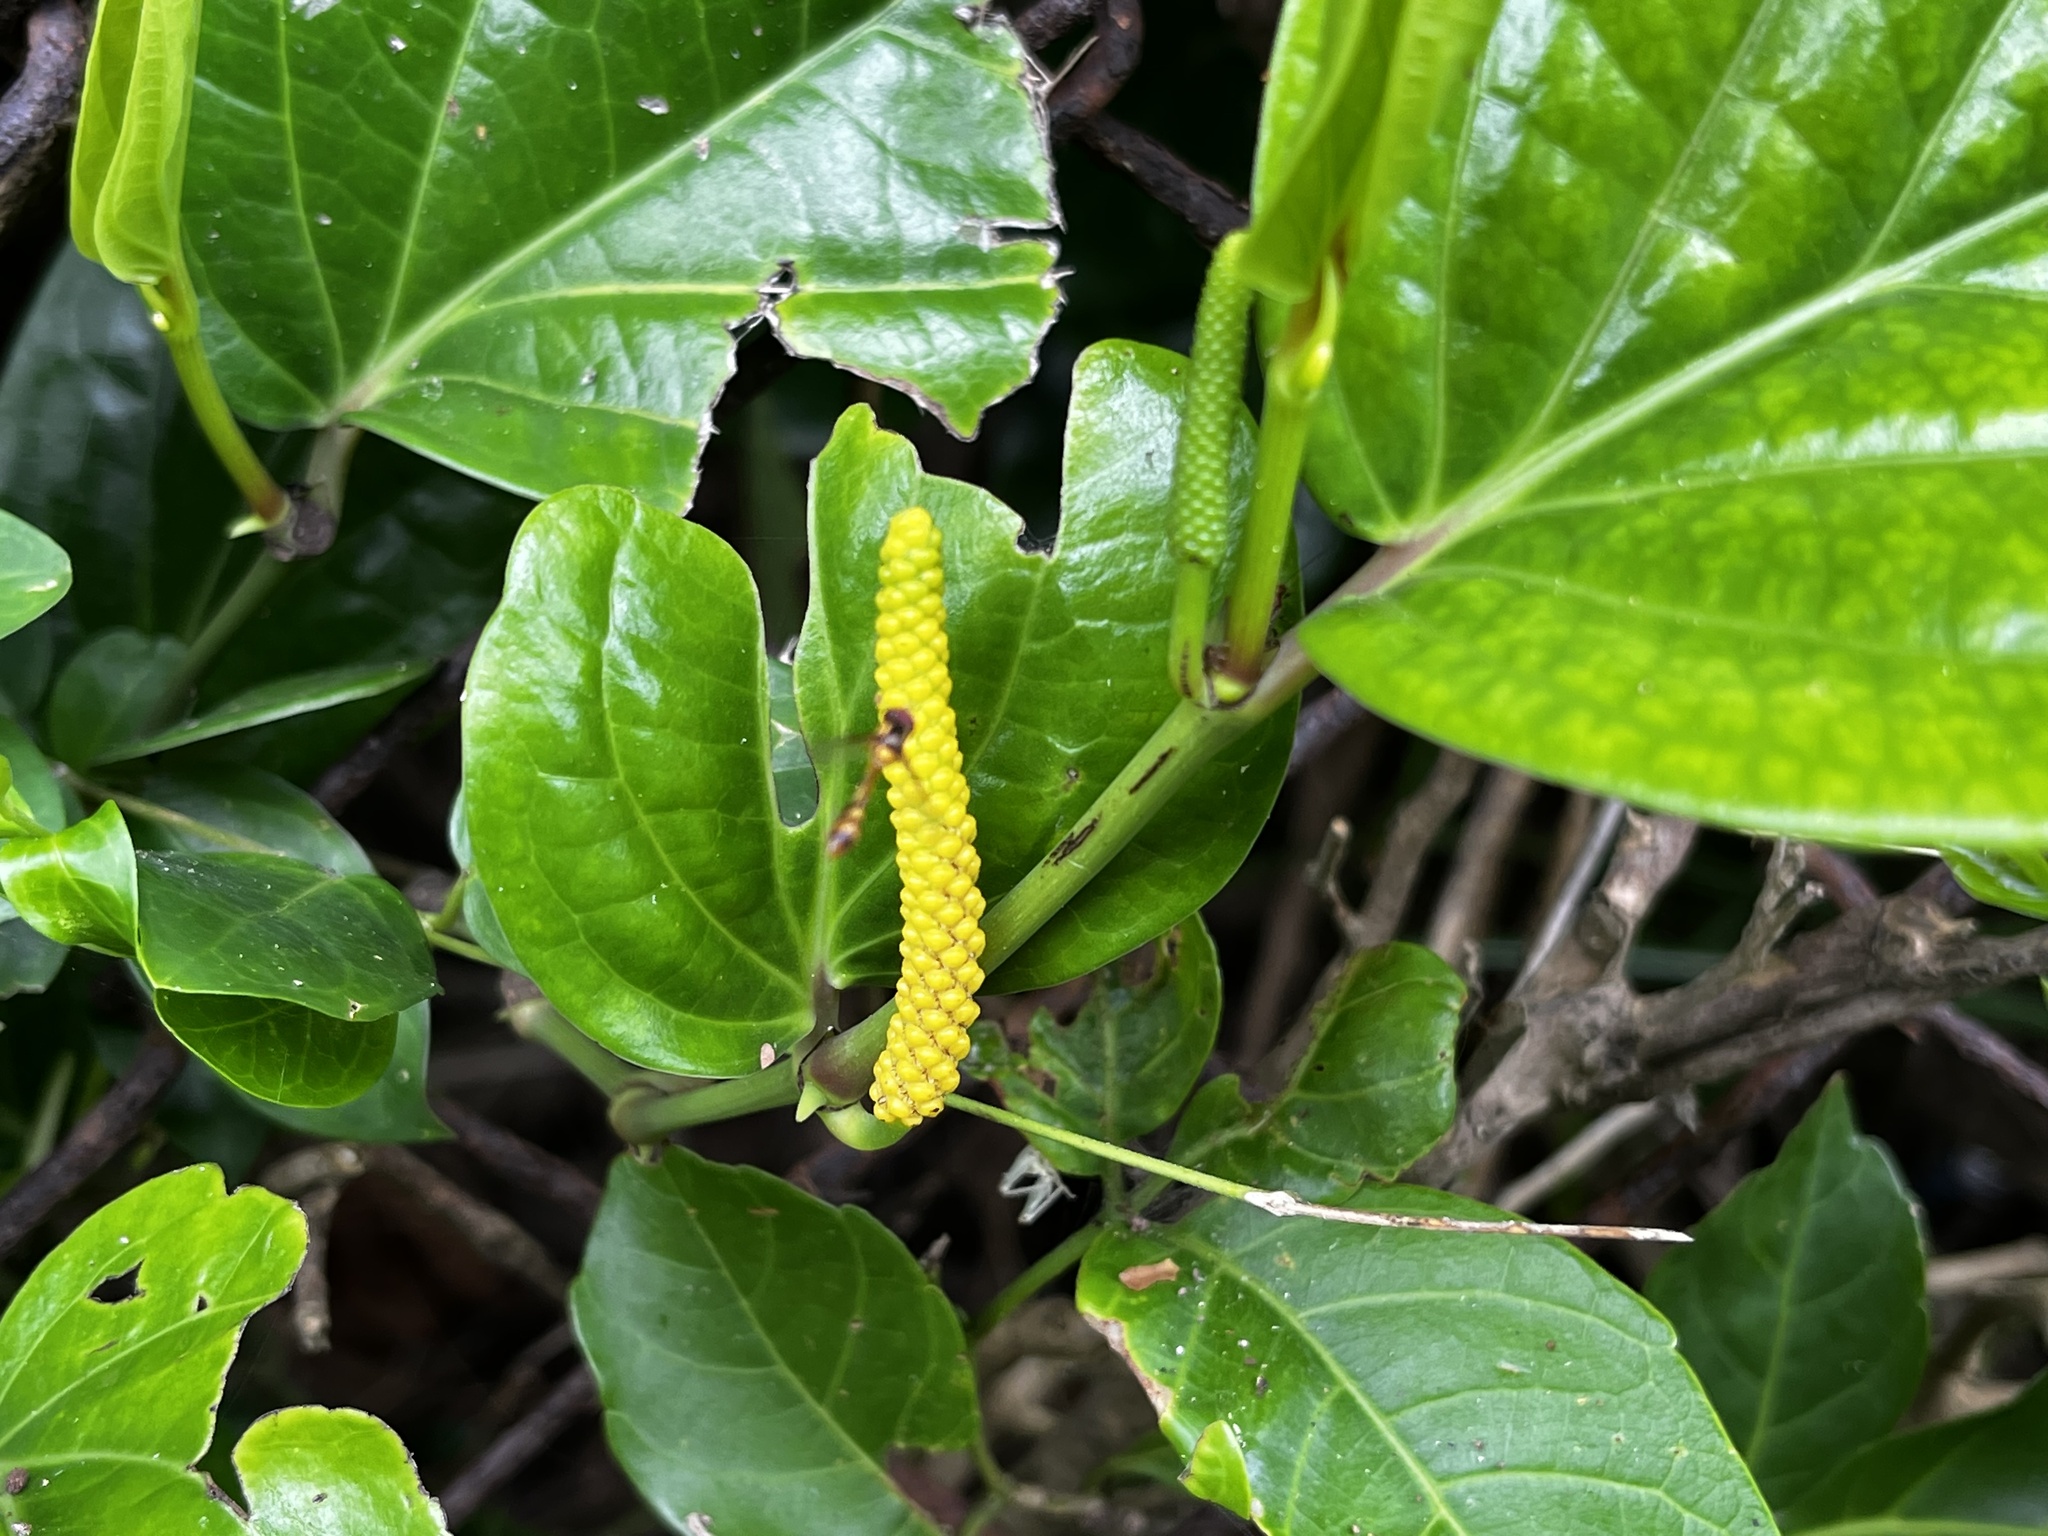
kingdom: Plantae
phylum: Tracheophyta
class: Magnoliopsida
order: Piperales
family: Piperaceae
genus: Piper
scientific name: Piper kawakamii
